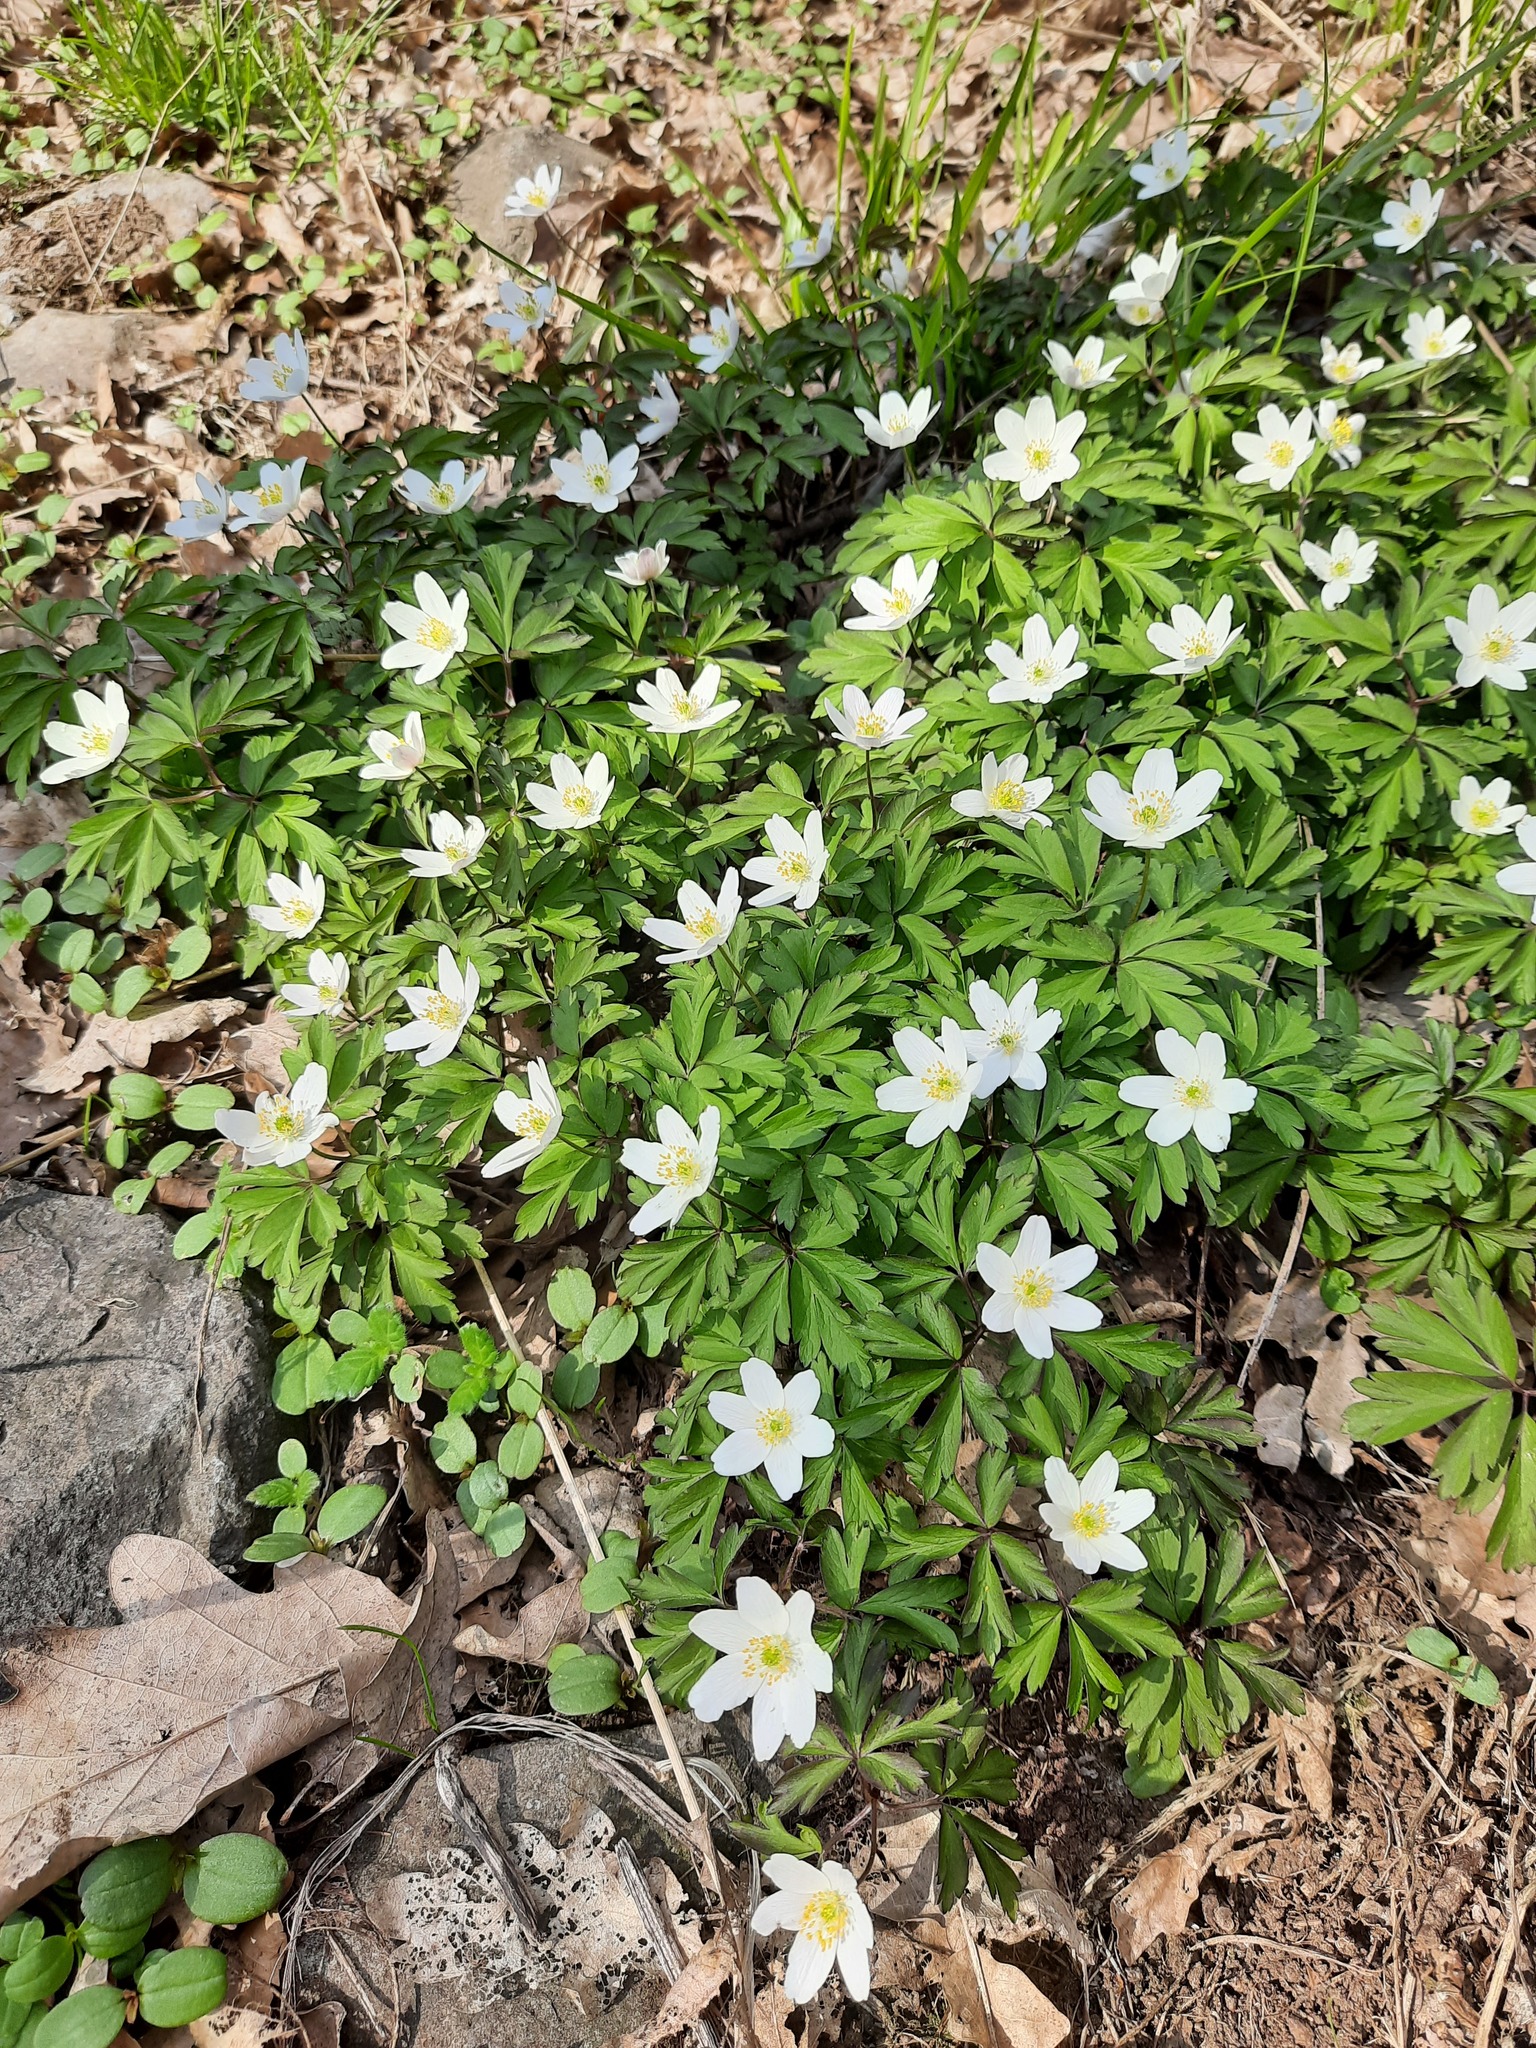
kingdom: Plantae
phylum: Tracheophyta
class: Magnoliopsida
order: Ranunculales
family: Ranunculaceae
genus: Anemone
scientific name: Anemone nemorosa
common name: Wood anemone
